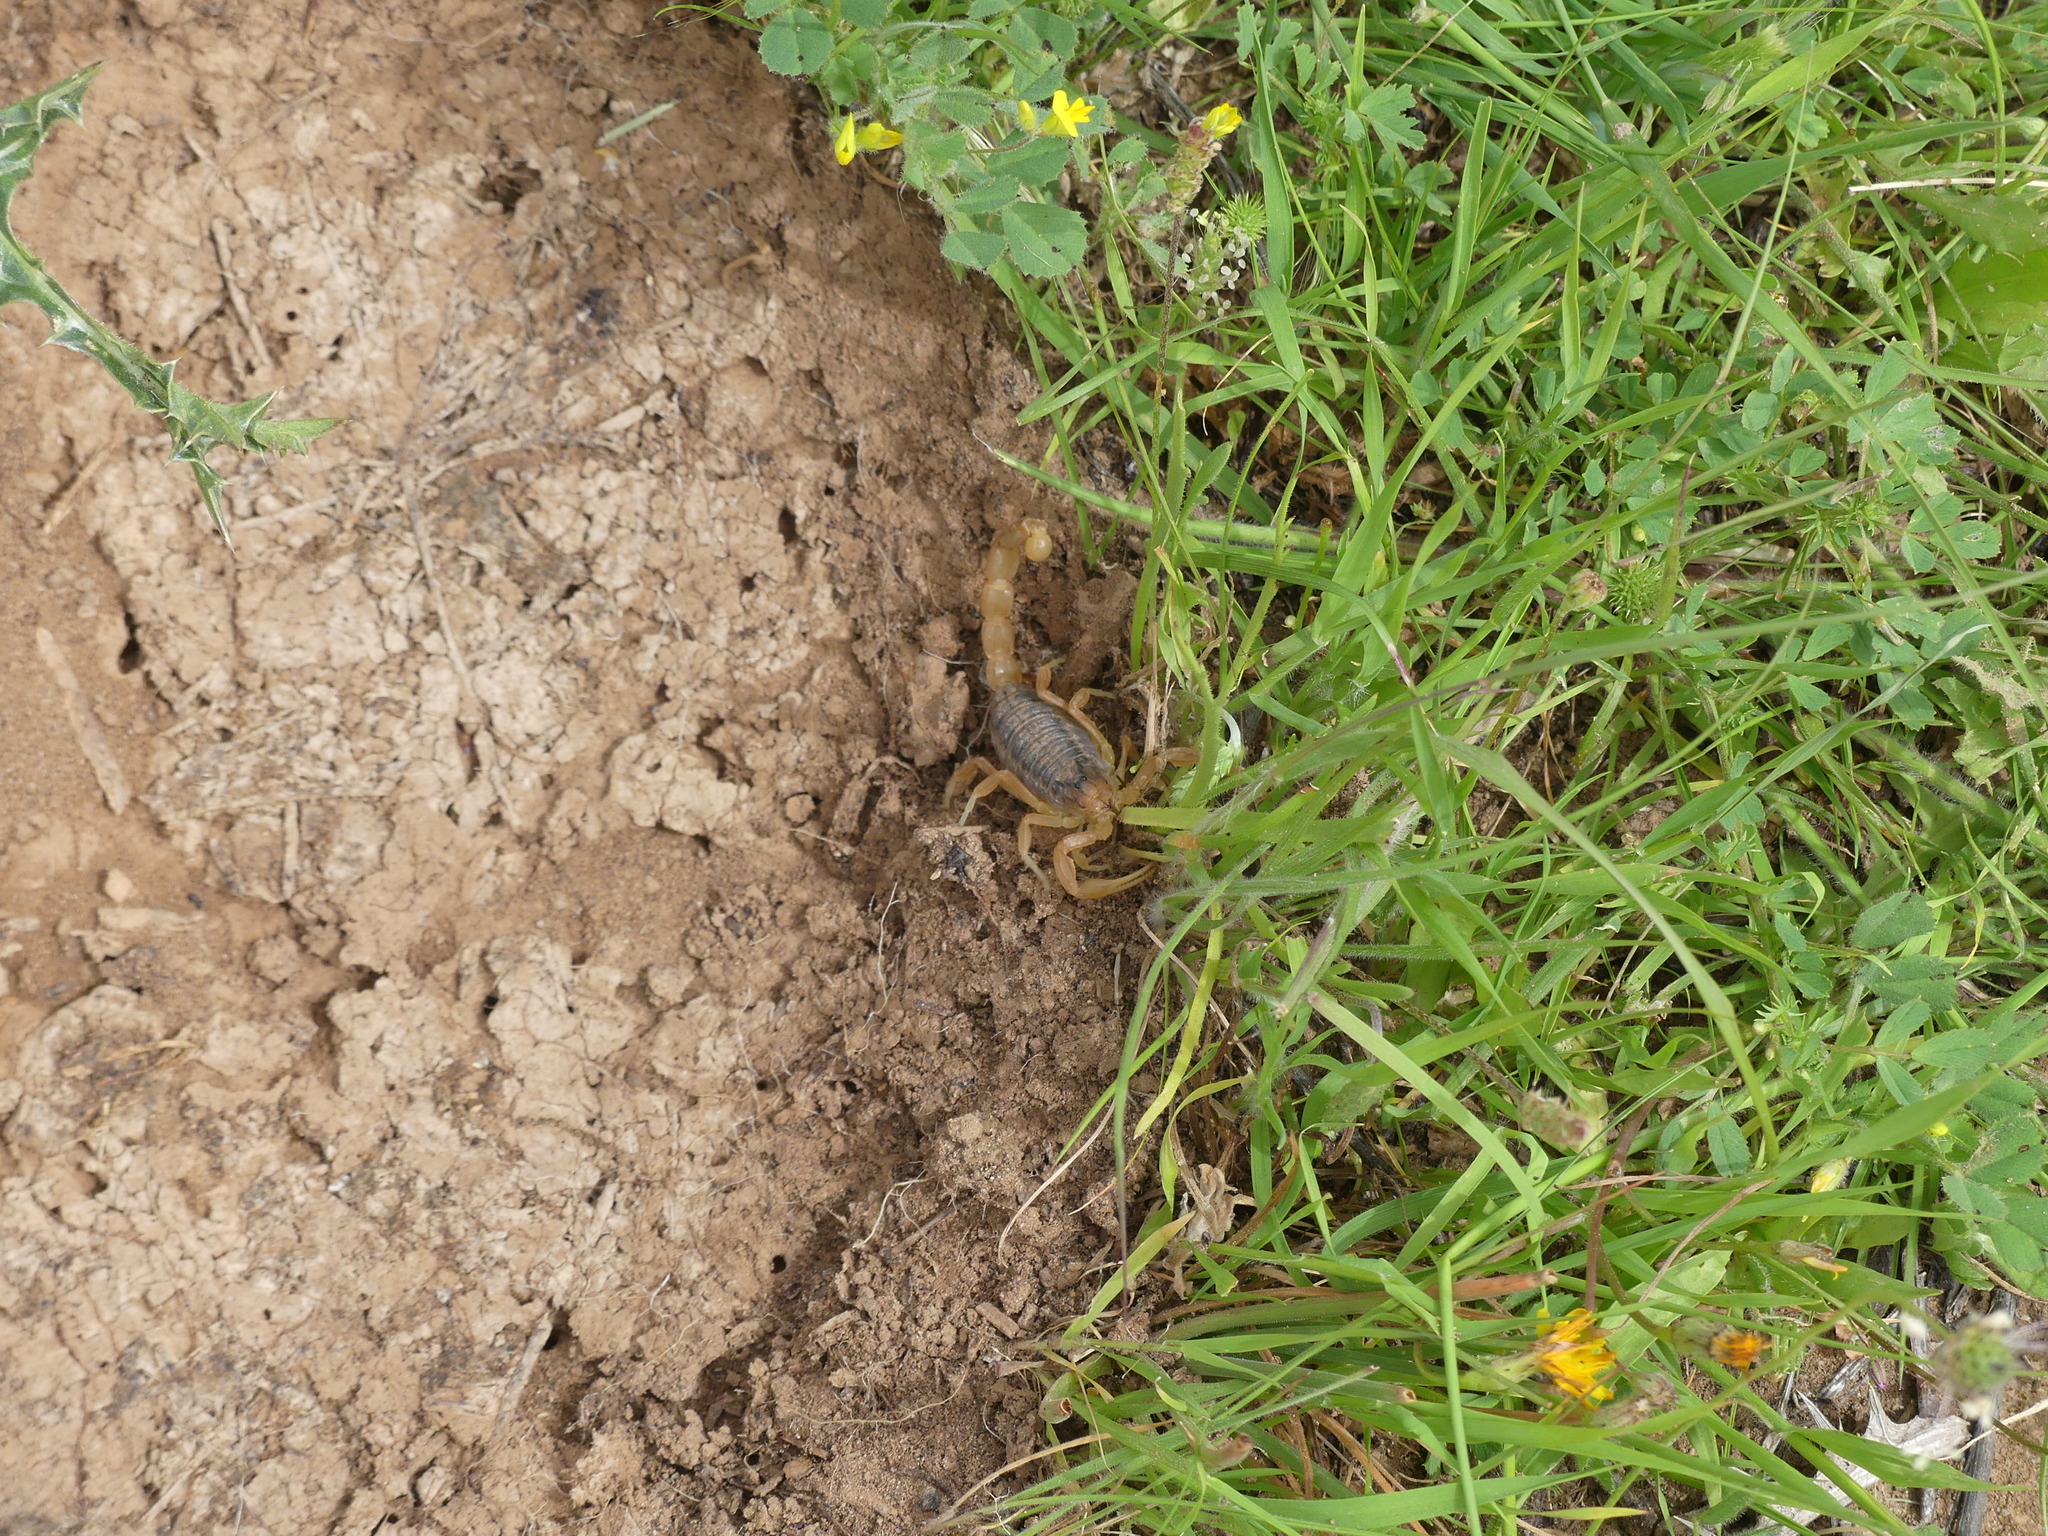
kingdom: Animalia
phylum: Arthropoda
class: Arachnida
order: Scorpiones
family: Buthidae
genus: Buthus
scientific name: Buthus elmoutaouakili
